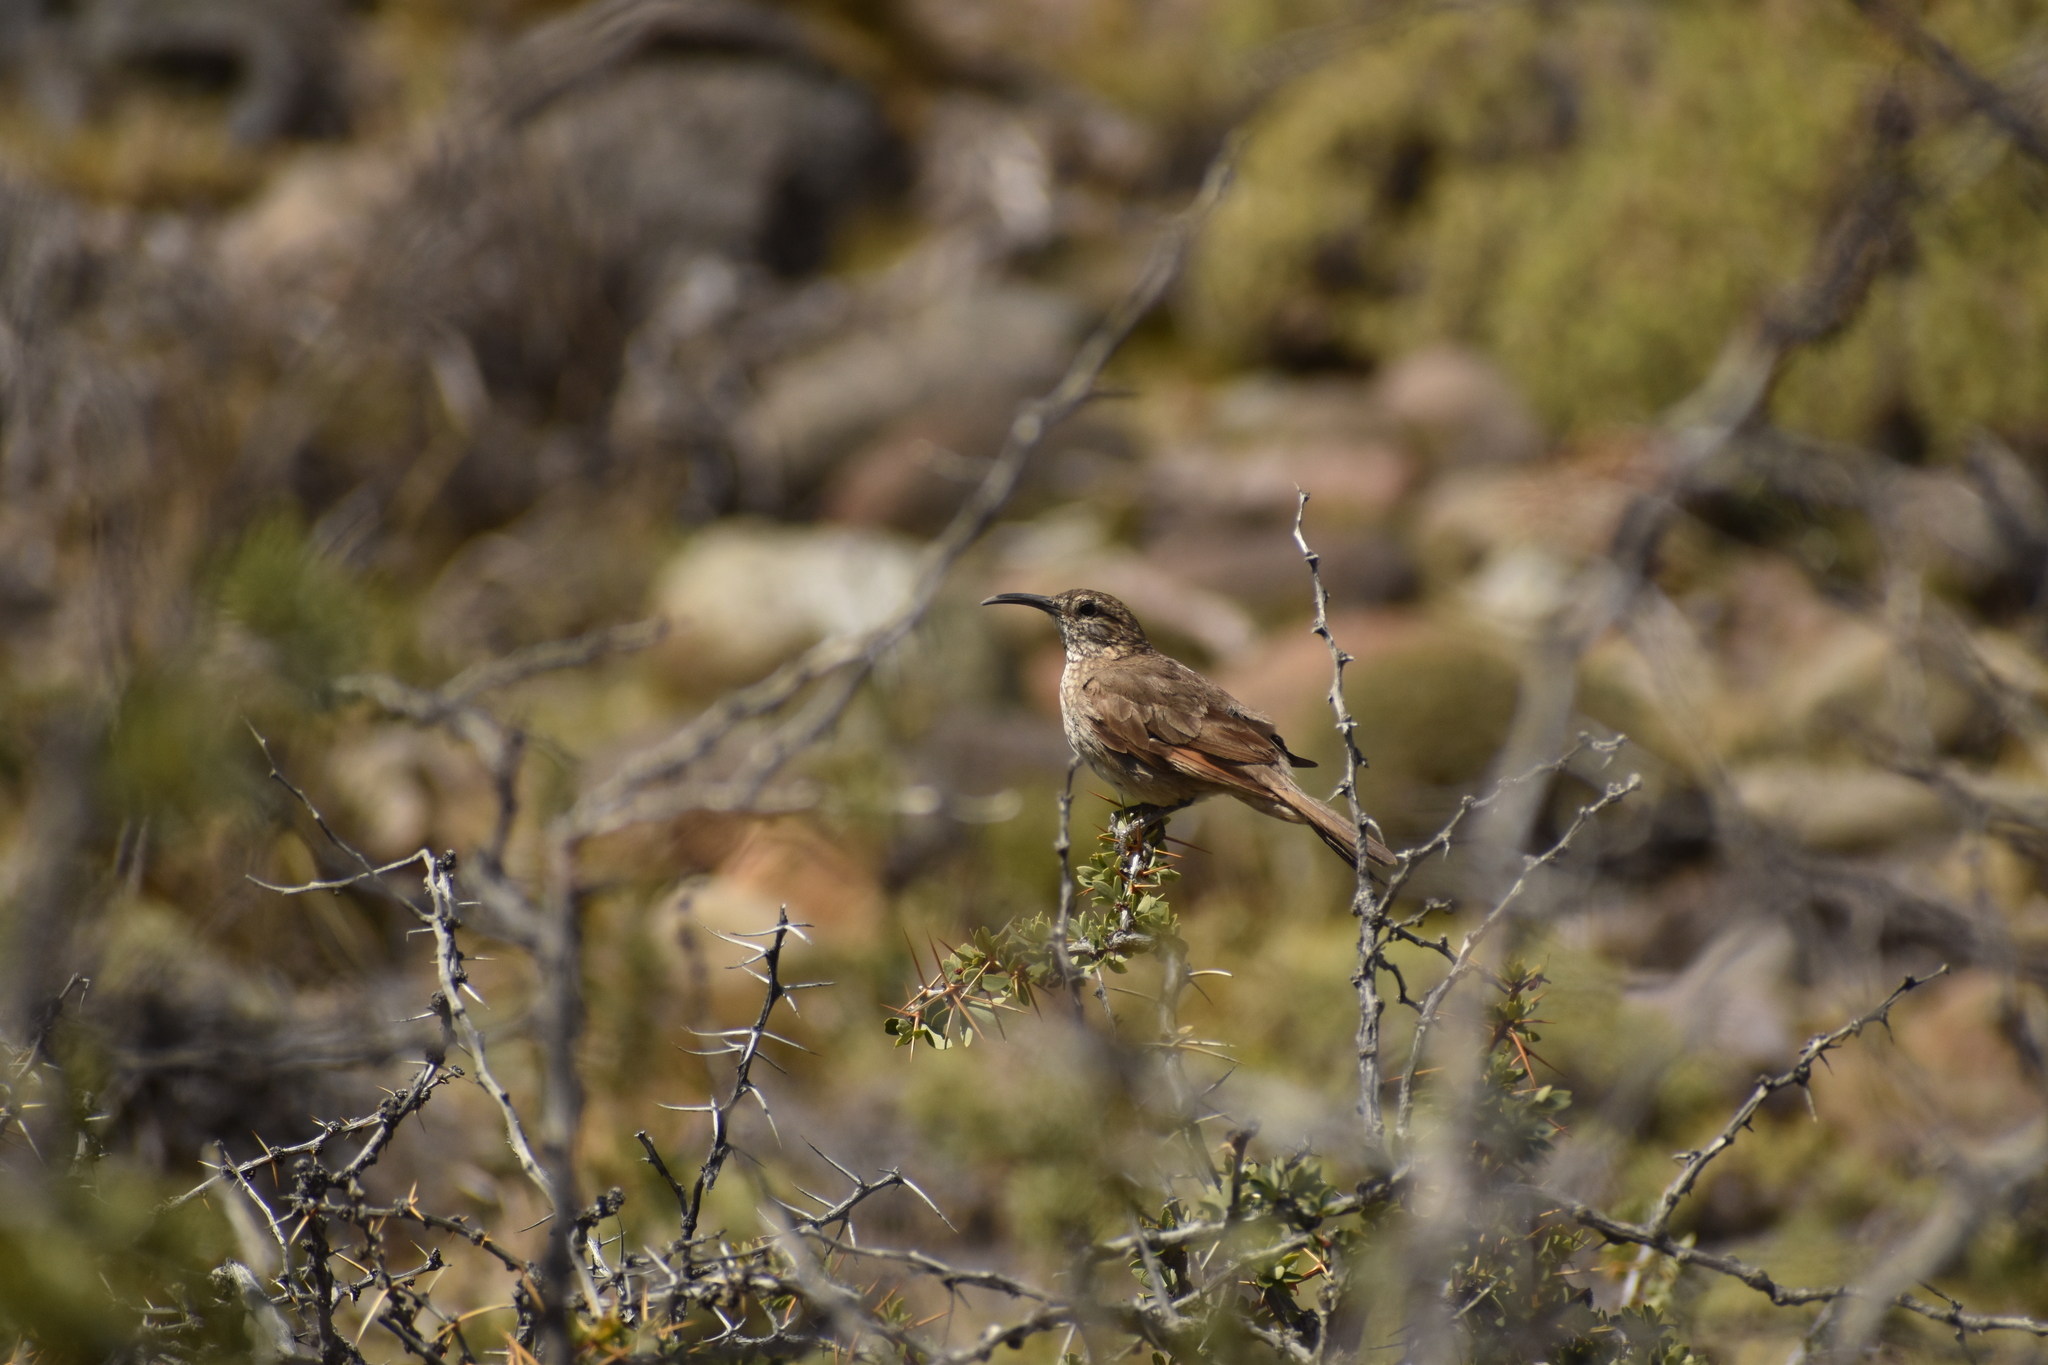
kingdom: Animalia
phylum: Chordata
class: Aves
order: Passeriformes
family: Furnariidae
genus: Upucerthia
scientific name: Upucerthia dumetaria
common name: Scale-throated earthcreeper
